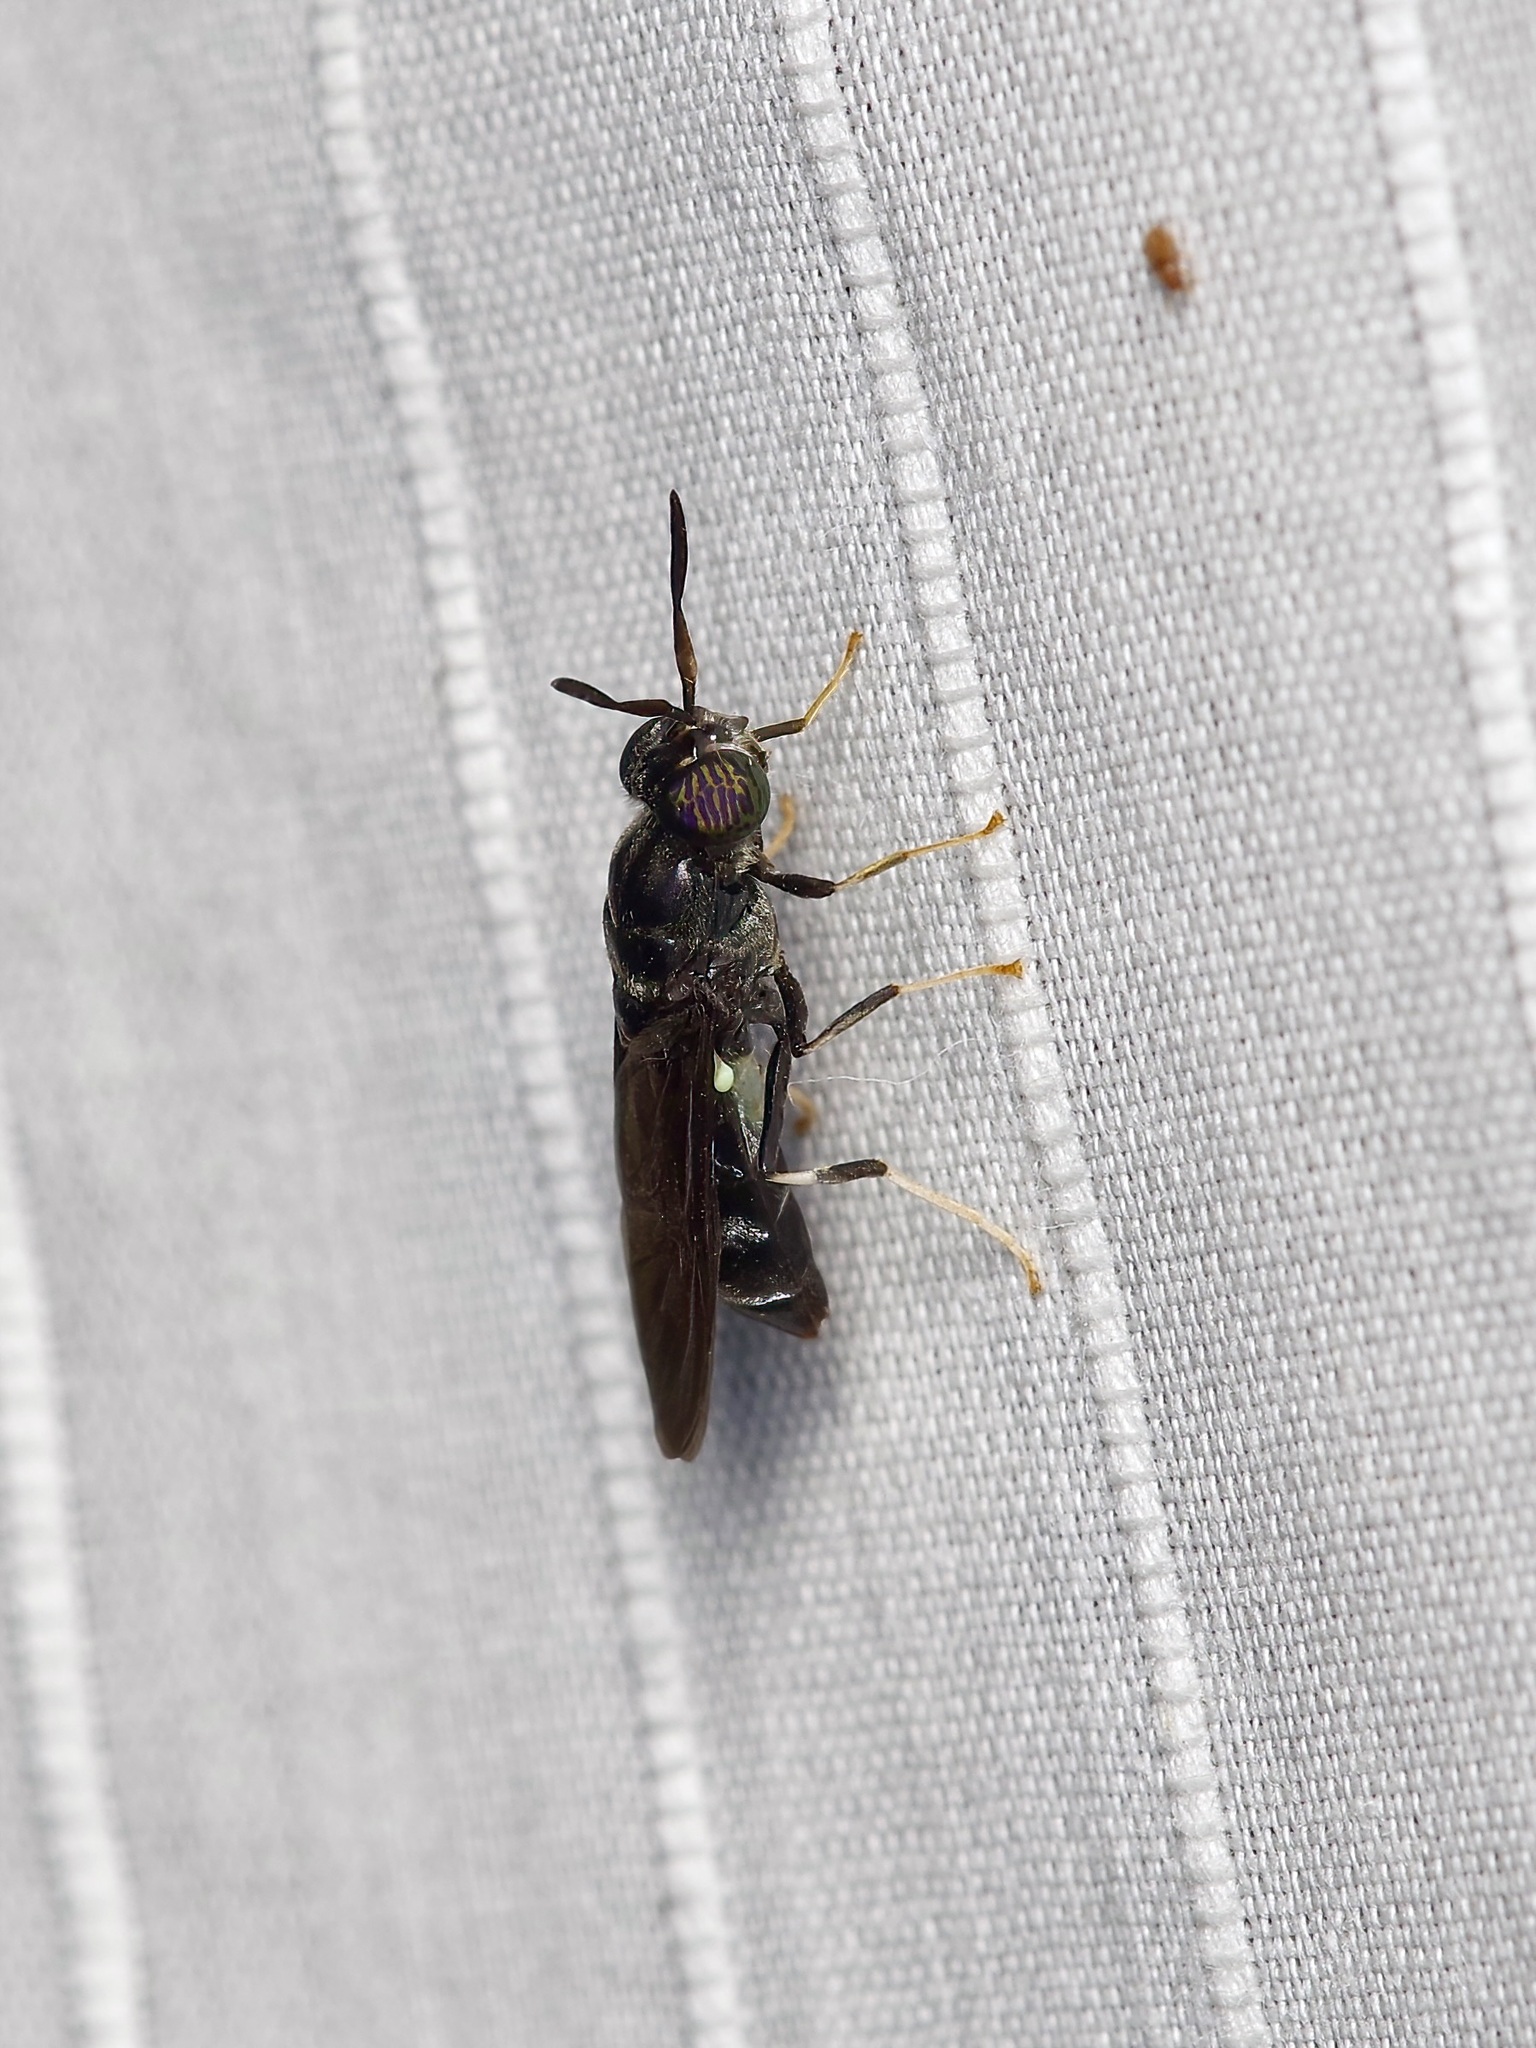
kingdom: Animalia
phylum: Arthropoda
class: Insecta
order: Diptera
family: Stratiomyidae
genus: Hermetia
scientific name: Hermetia illucens
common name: Black soldier fly
